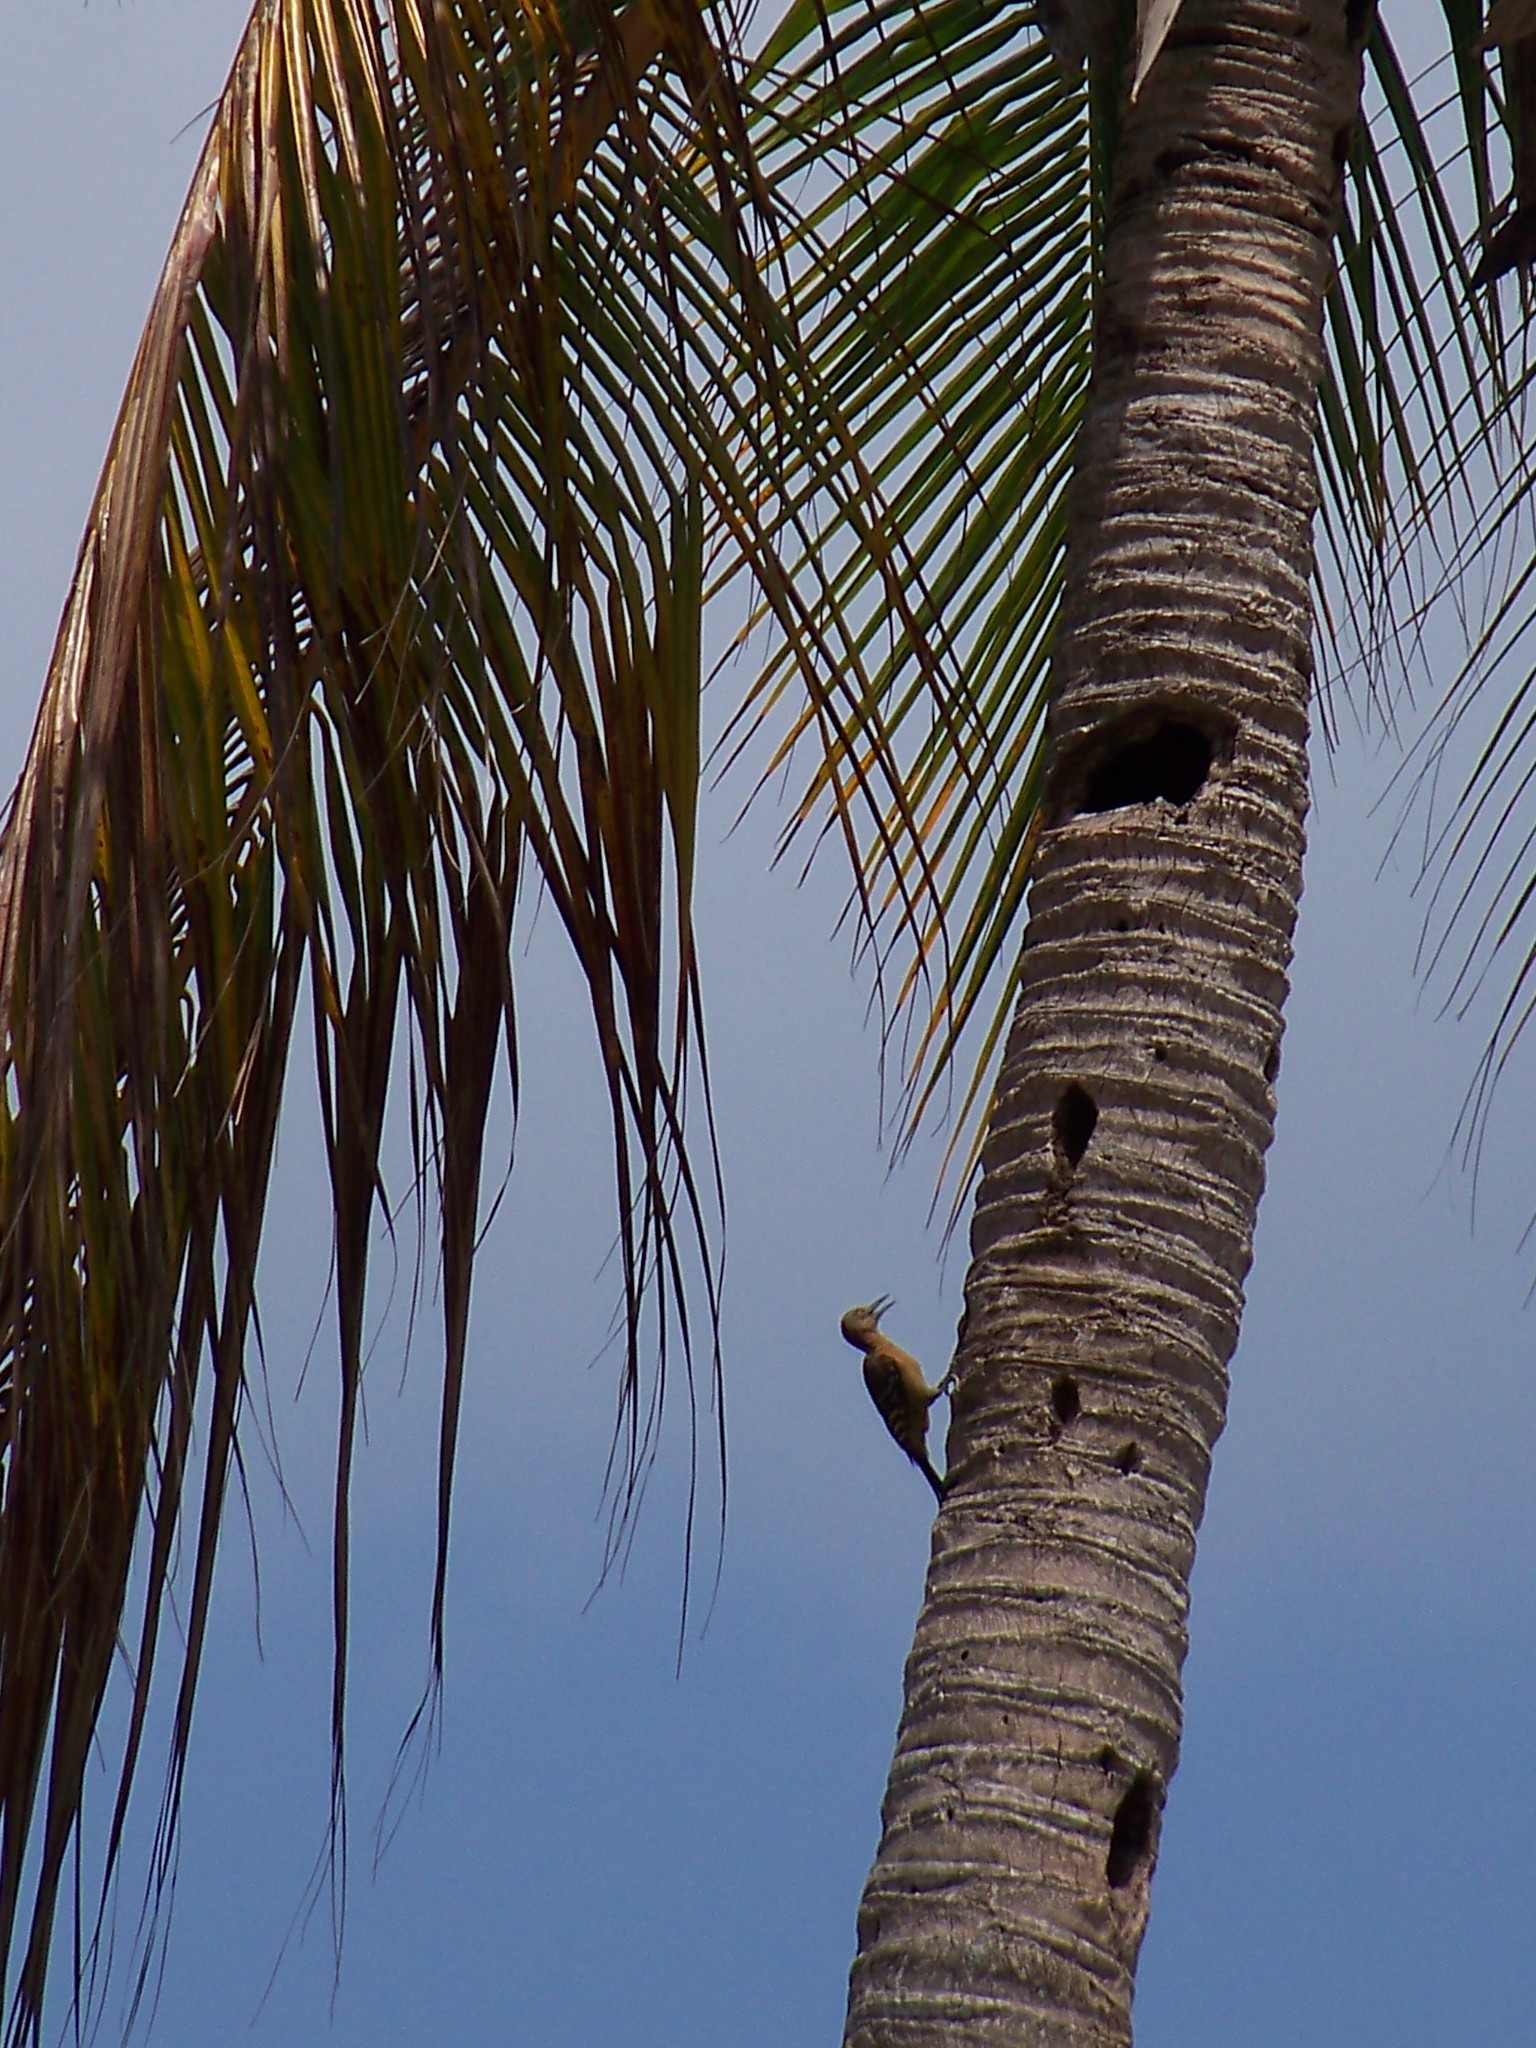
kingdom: Animalia
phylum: Chordata
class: Aves
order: Piciformes
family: Picidae
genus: Melanerpes
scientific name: Melanerpes striatus
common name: Hispaniolan woodpecker
